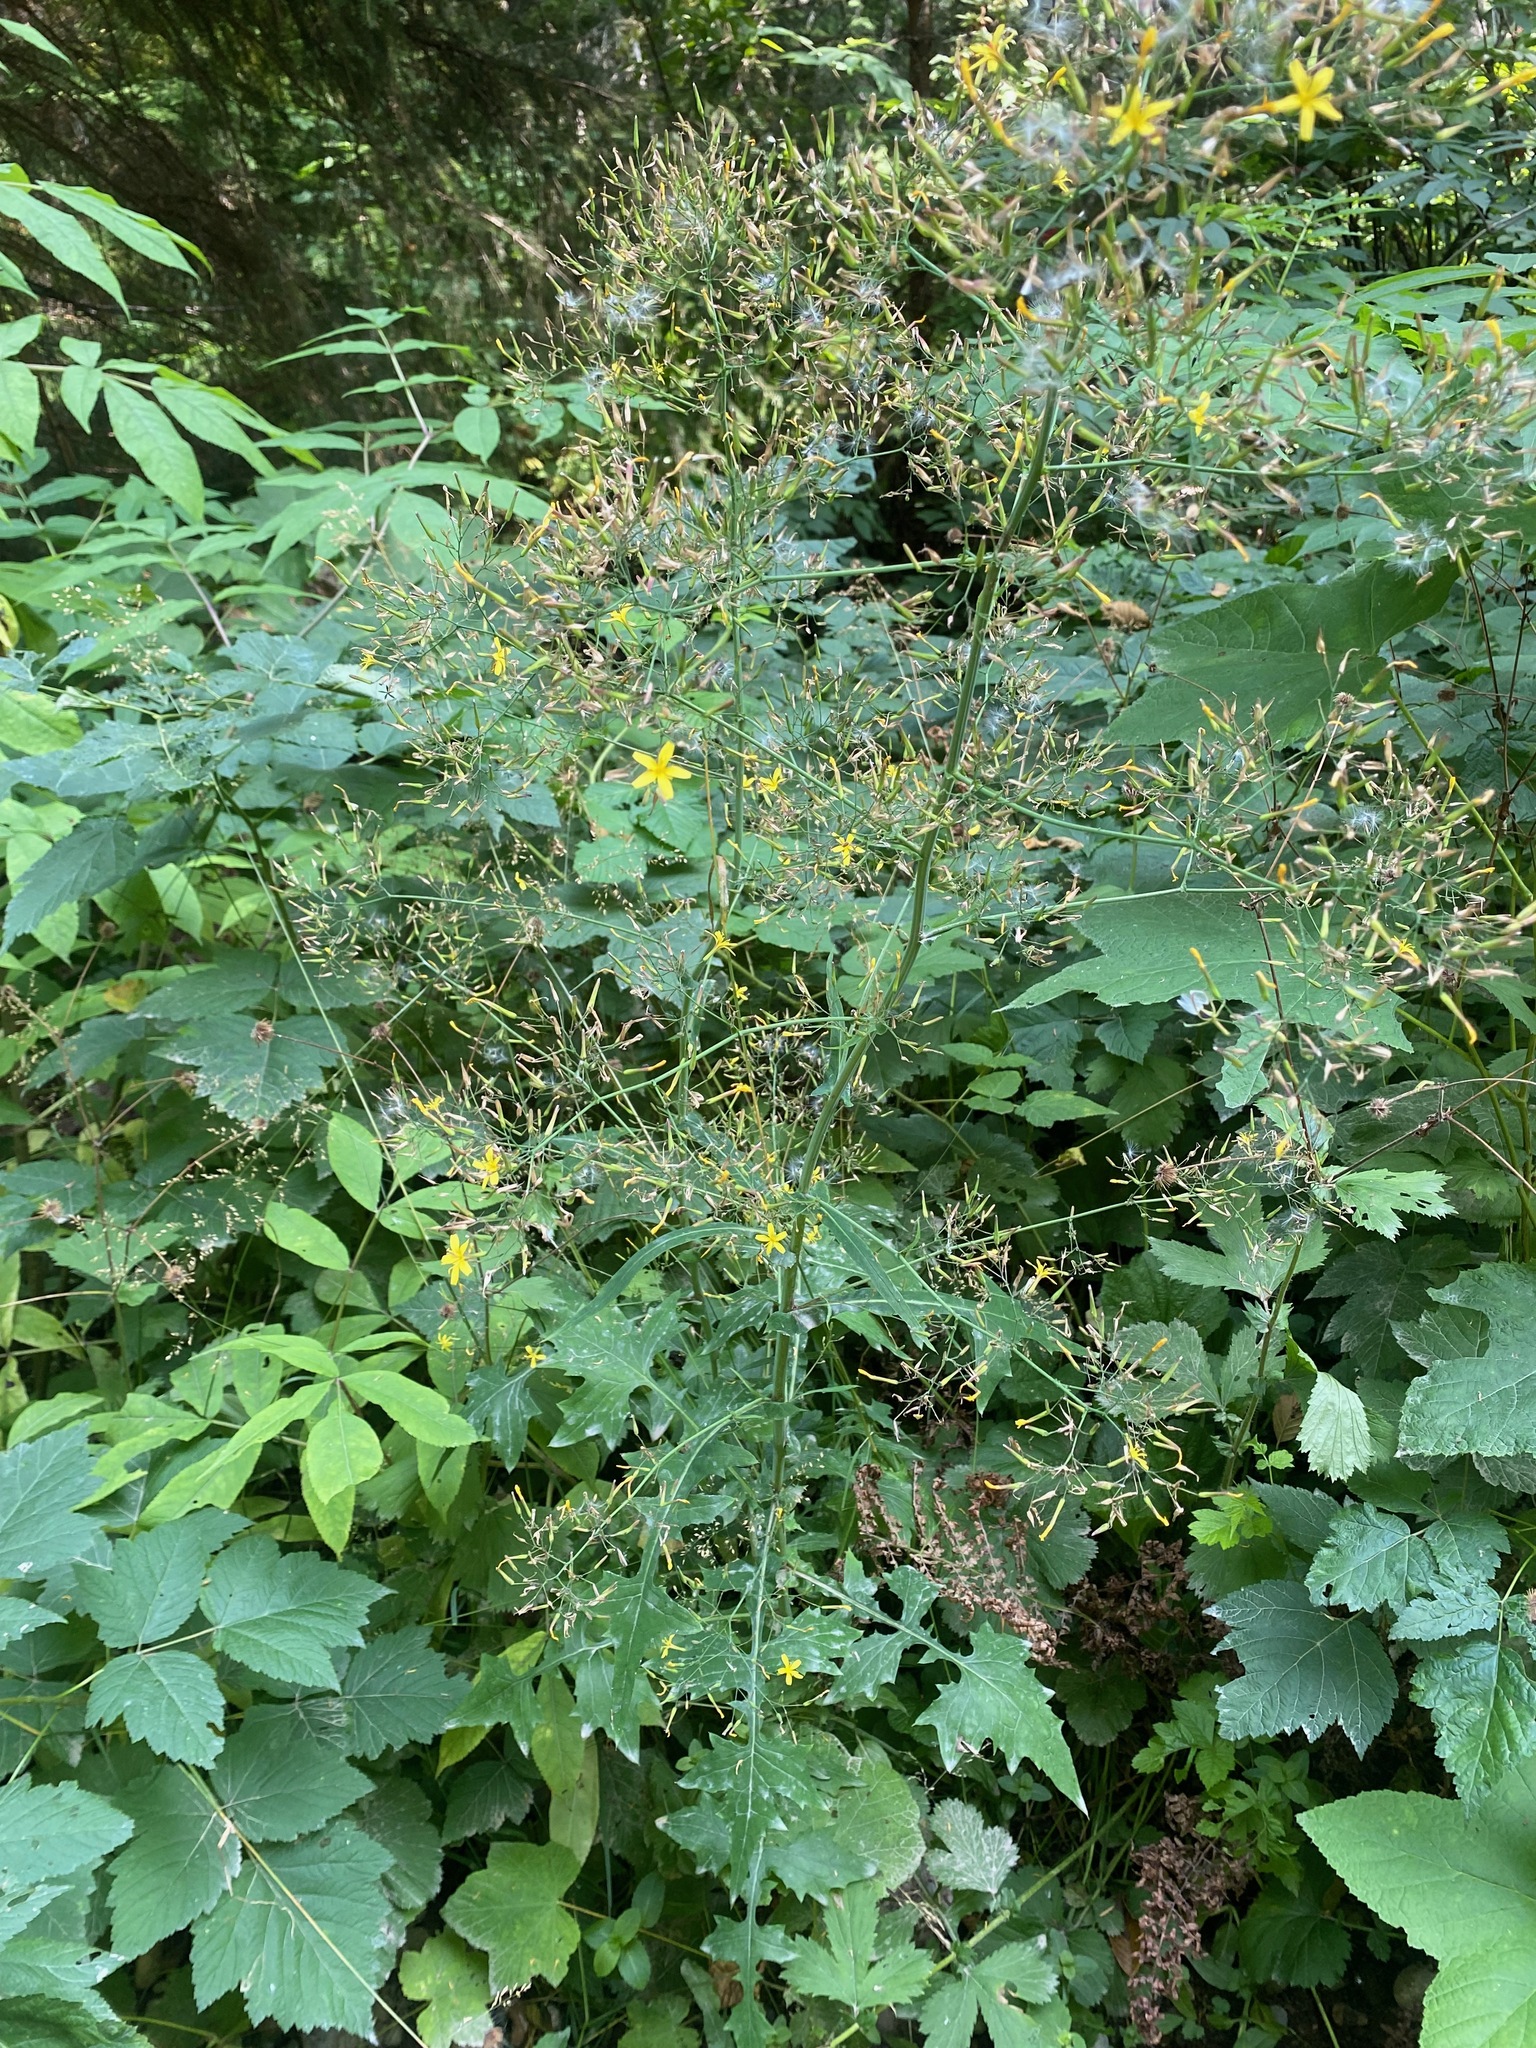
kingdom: Plantae
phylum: Tracheophyta
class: Magnoliopsida
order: Asterales
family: Asteraceae
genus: Mycelis
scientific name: Mycelis muralis
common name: Wall lettuce
